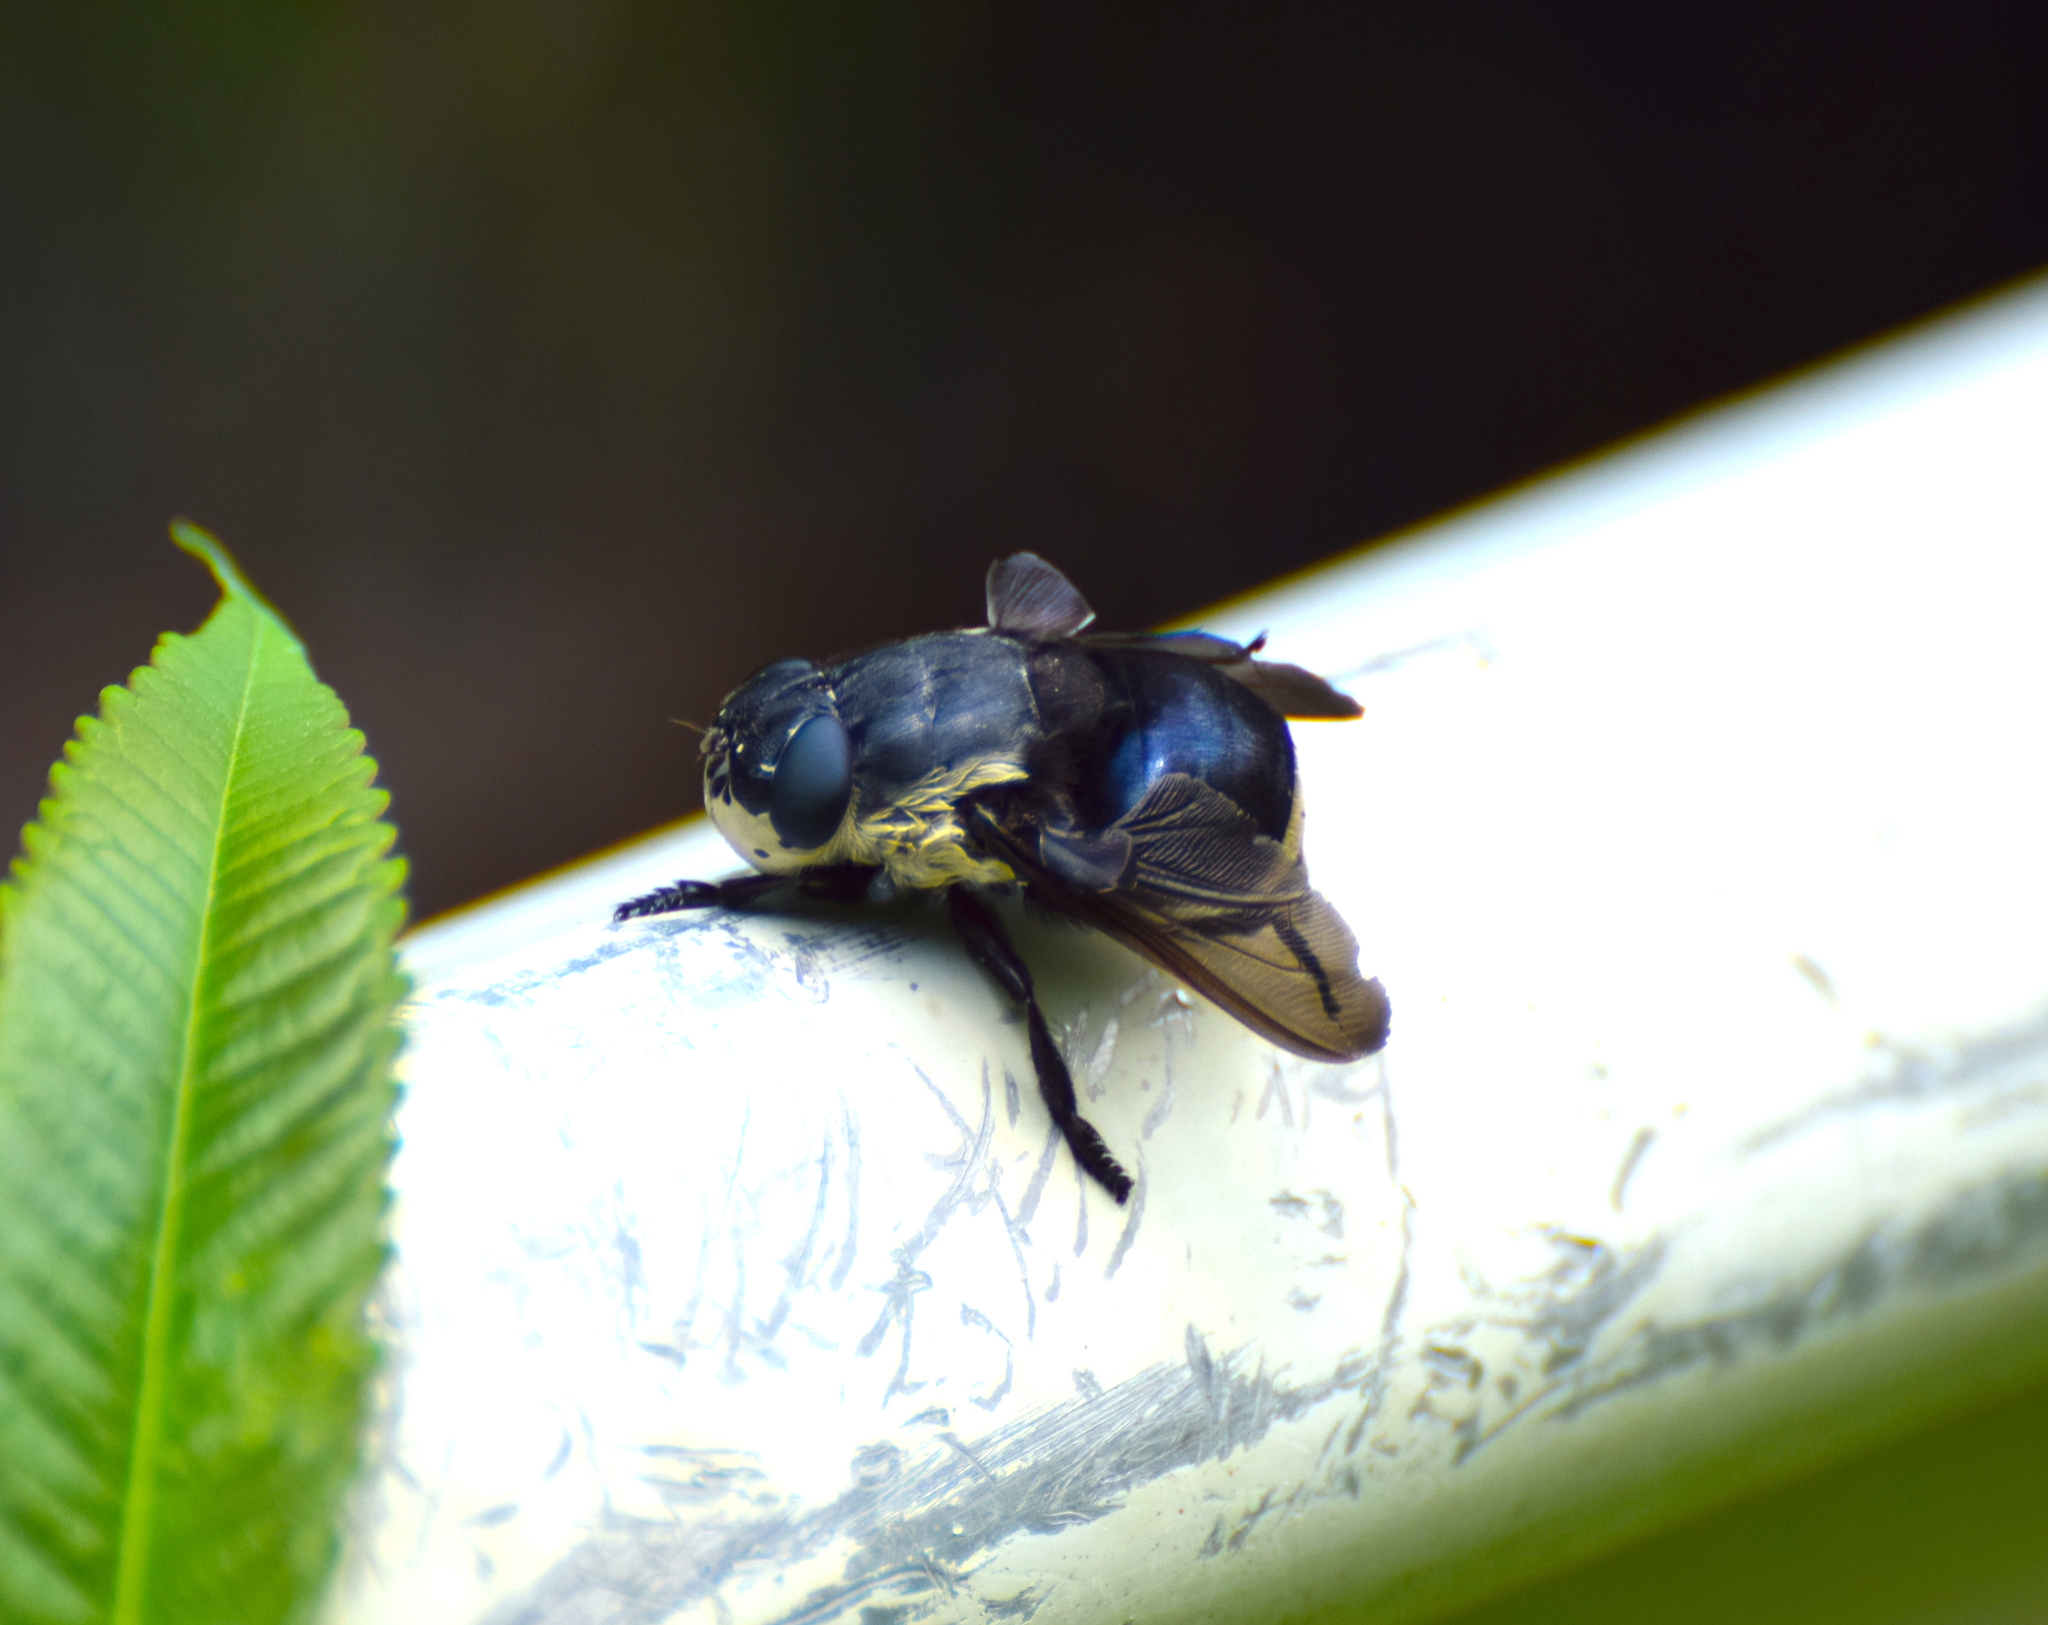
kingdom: Animalia
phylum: Arthropoda
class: Insecta
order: Diptera
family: Oestridae
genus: Cuterebra
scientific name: Cuterebra fontinella
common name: Mouse bot fly
